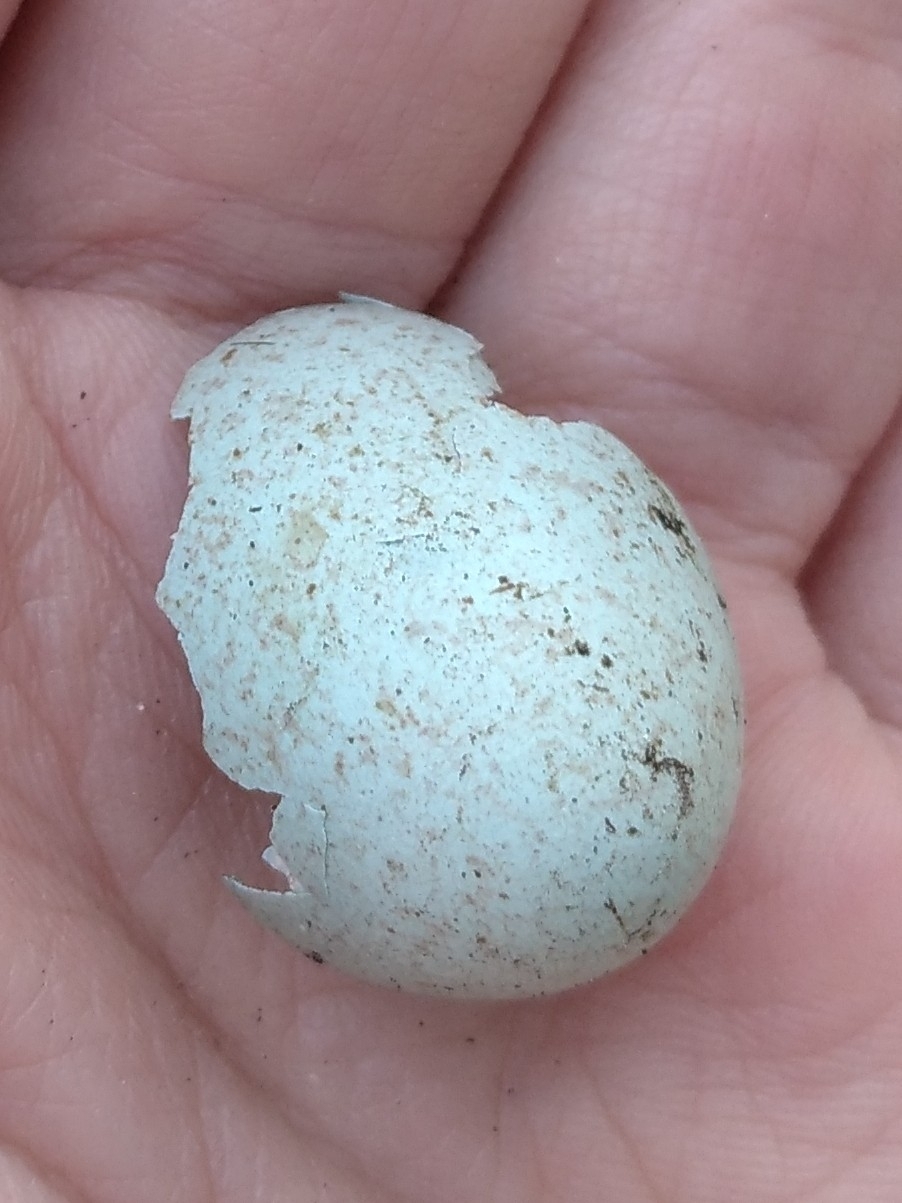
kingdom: Animalia
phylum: Chordata
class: Aves
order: Passeriformes
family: Turdidae
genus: Turdus
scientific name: Turdus merula
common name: Common blackbird
